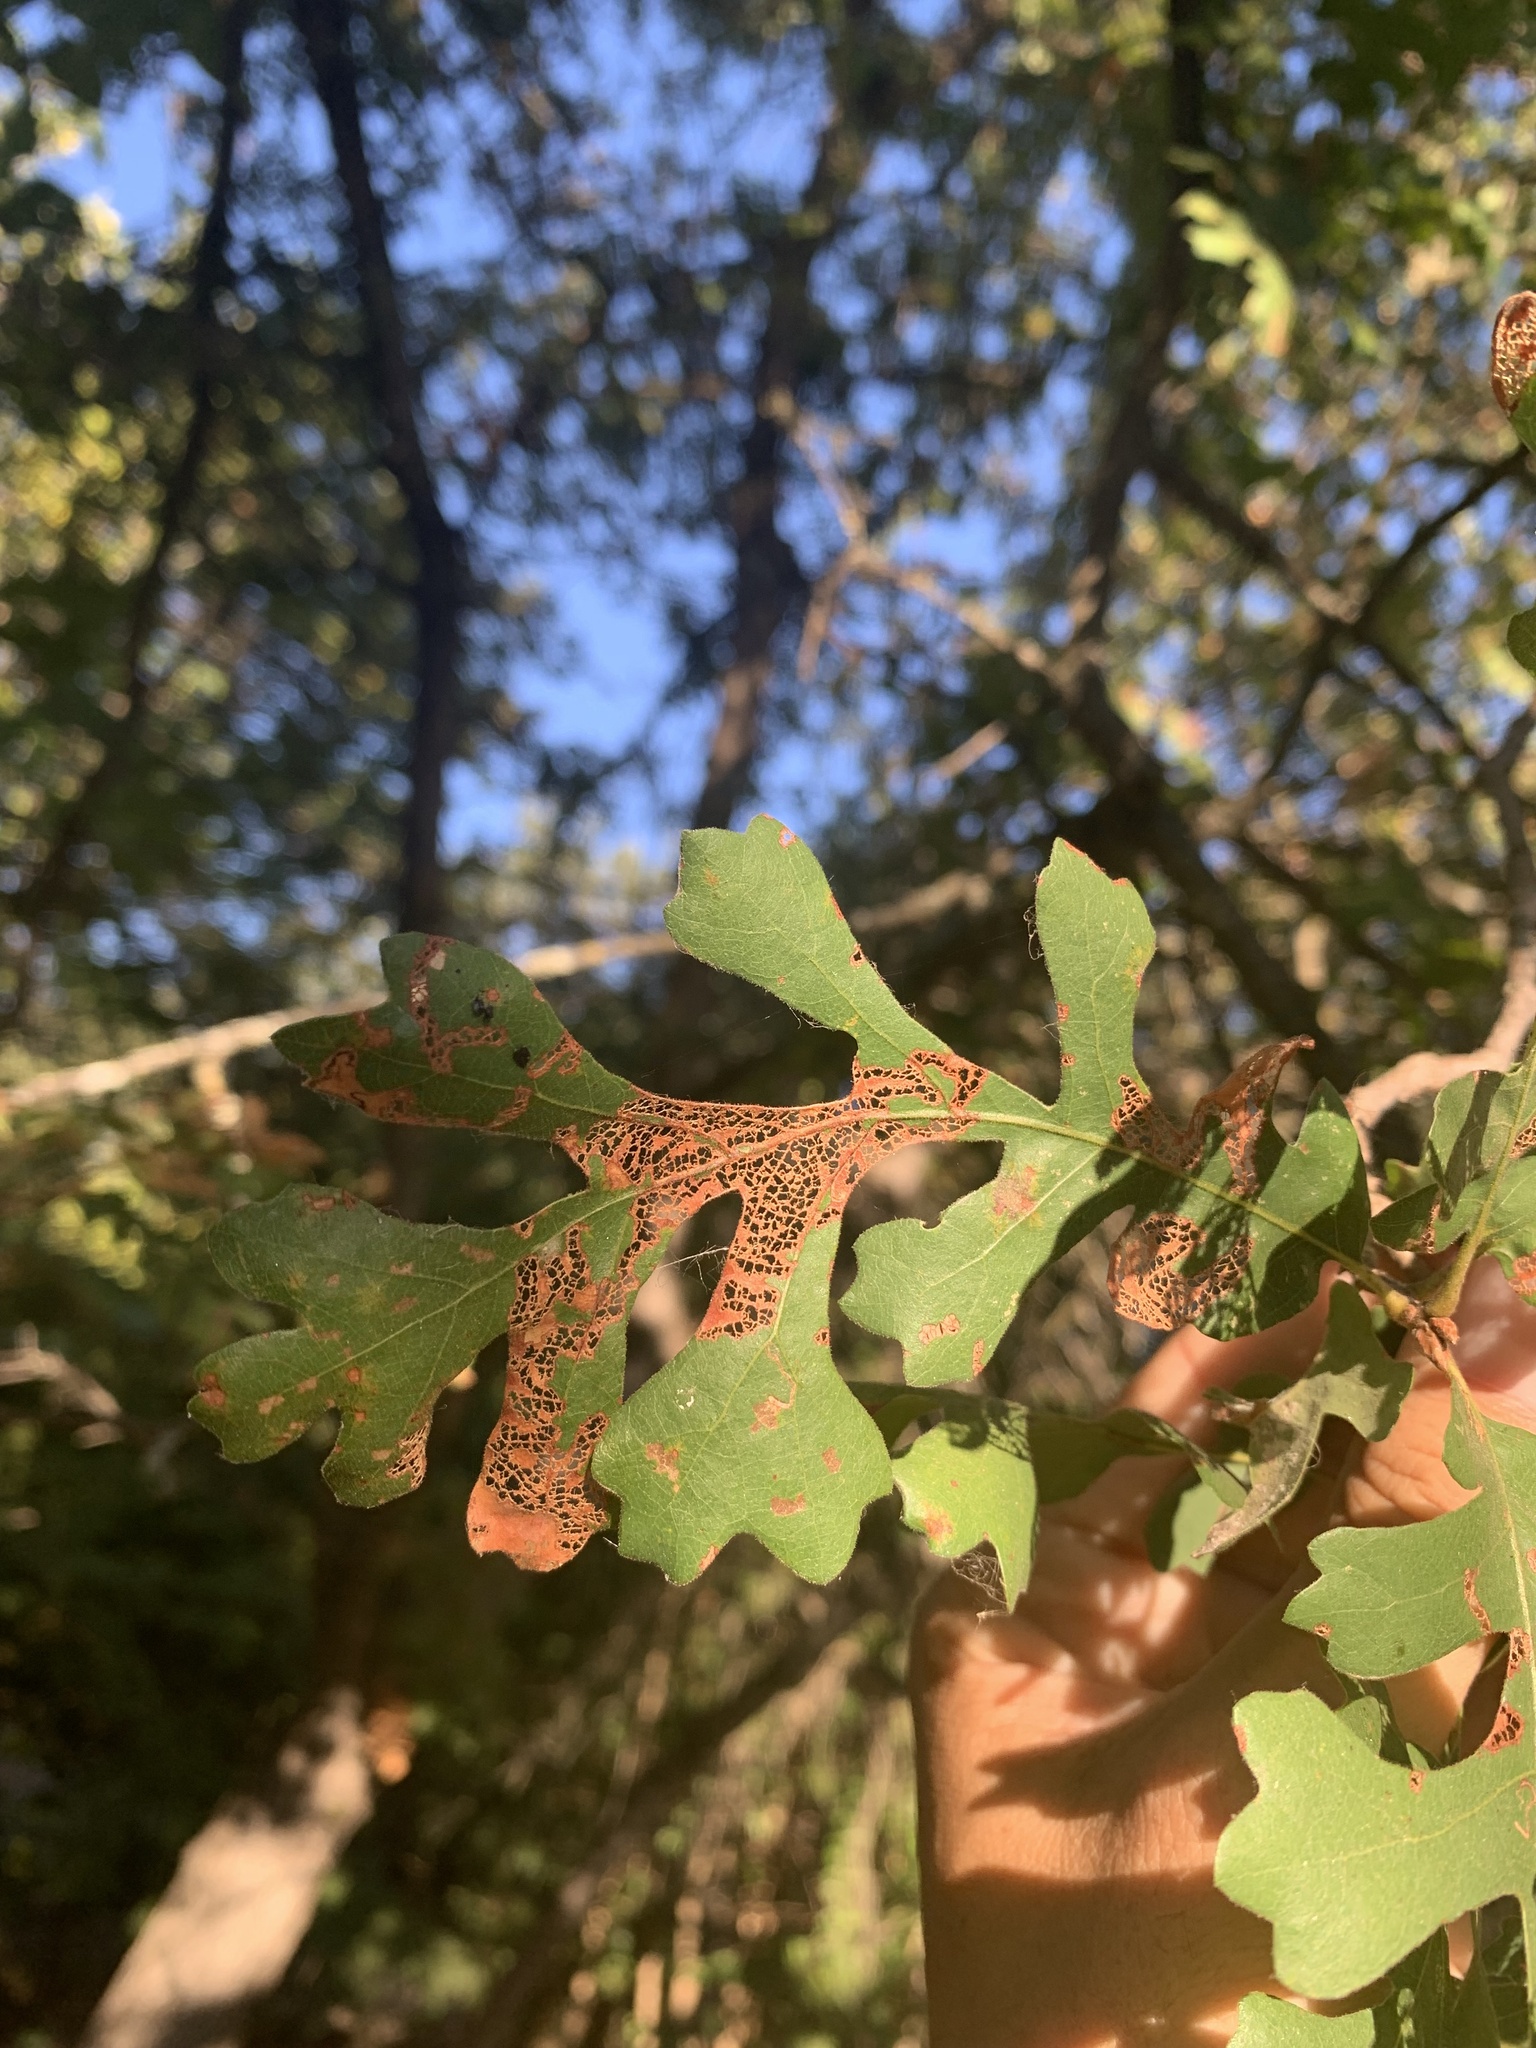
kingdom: Plantae
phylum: Tracheophyta
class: Magnoliopsida
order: Fagales
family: Fagaceae
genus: Quercus
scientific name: Quercus lobata
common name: Valley oak
